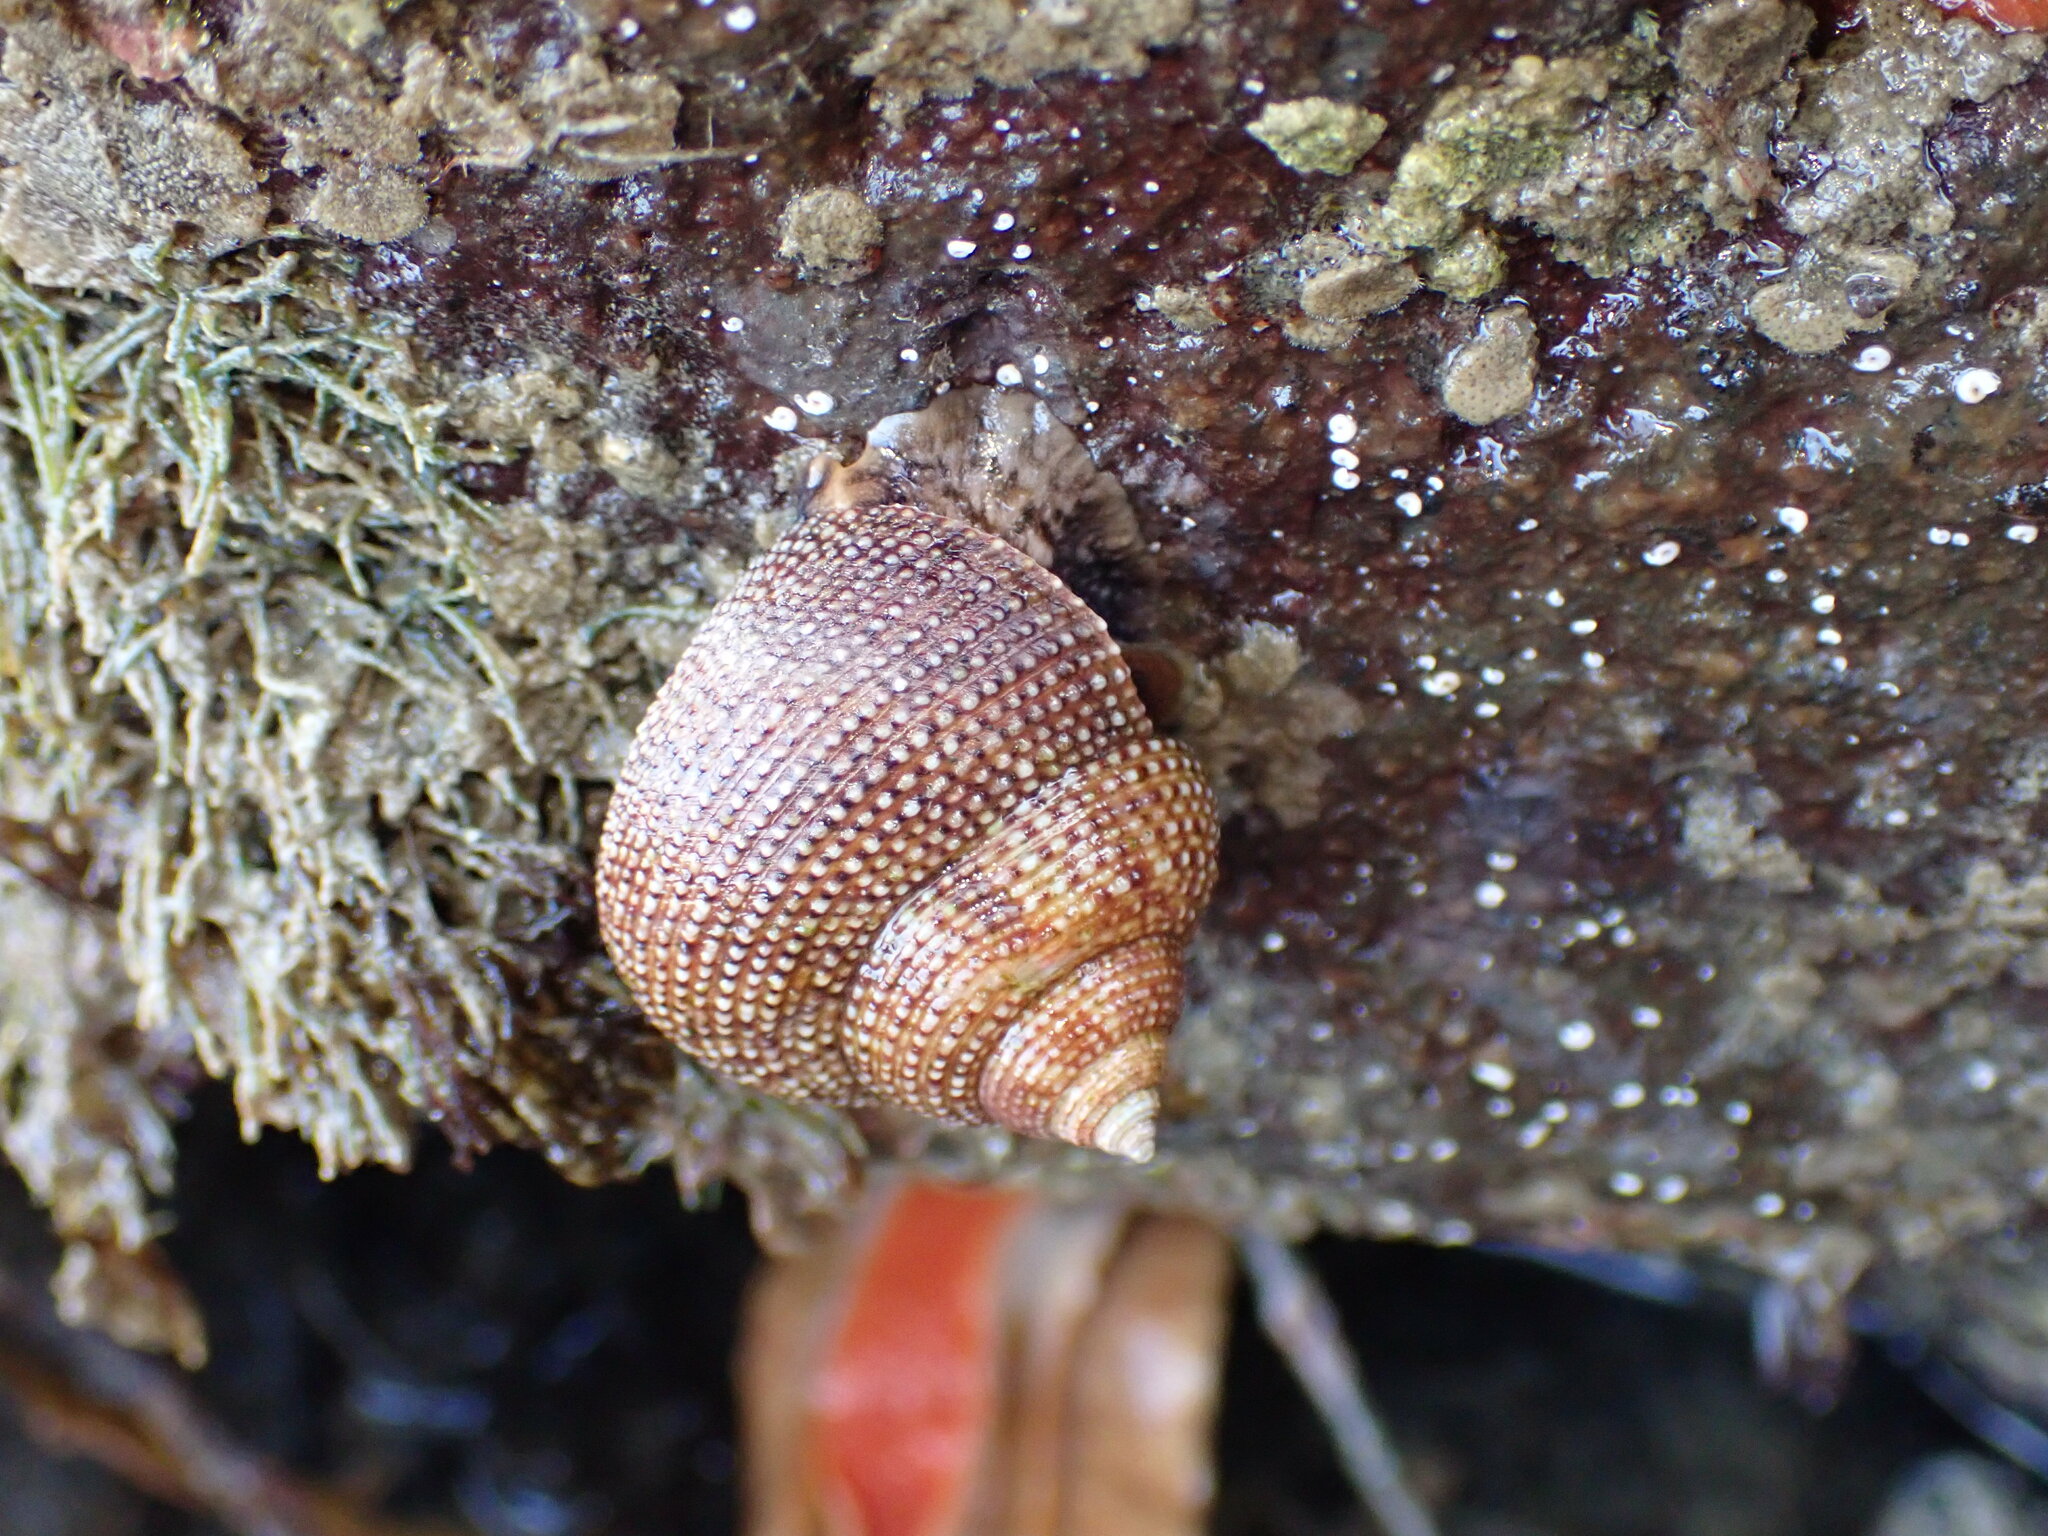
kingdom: Animalia
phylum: Mollusca
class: Gastropoda
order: Trochida
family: Calliostomatidae
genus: Maurea
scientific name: Maurea punctulata
